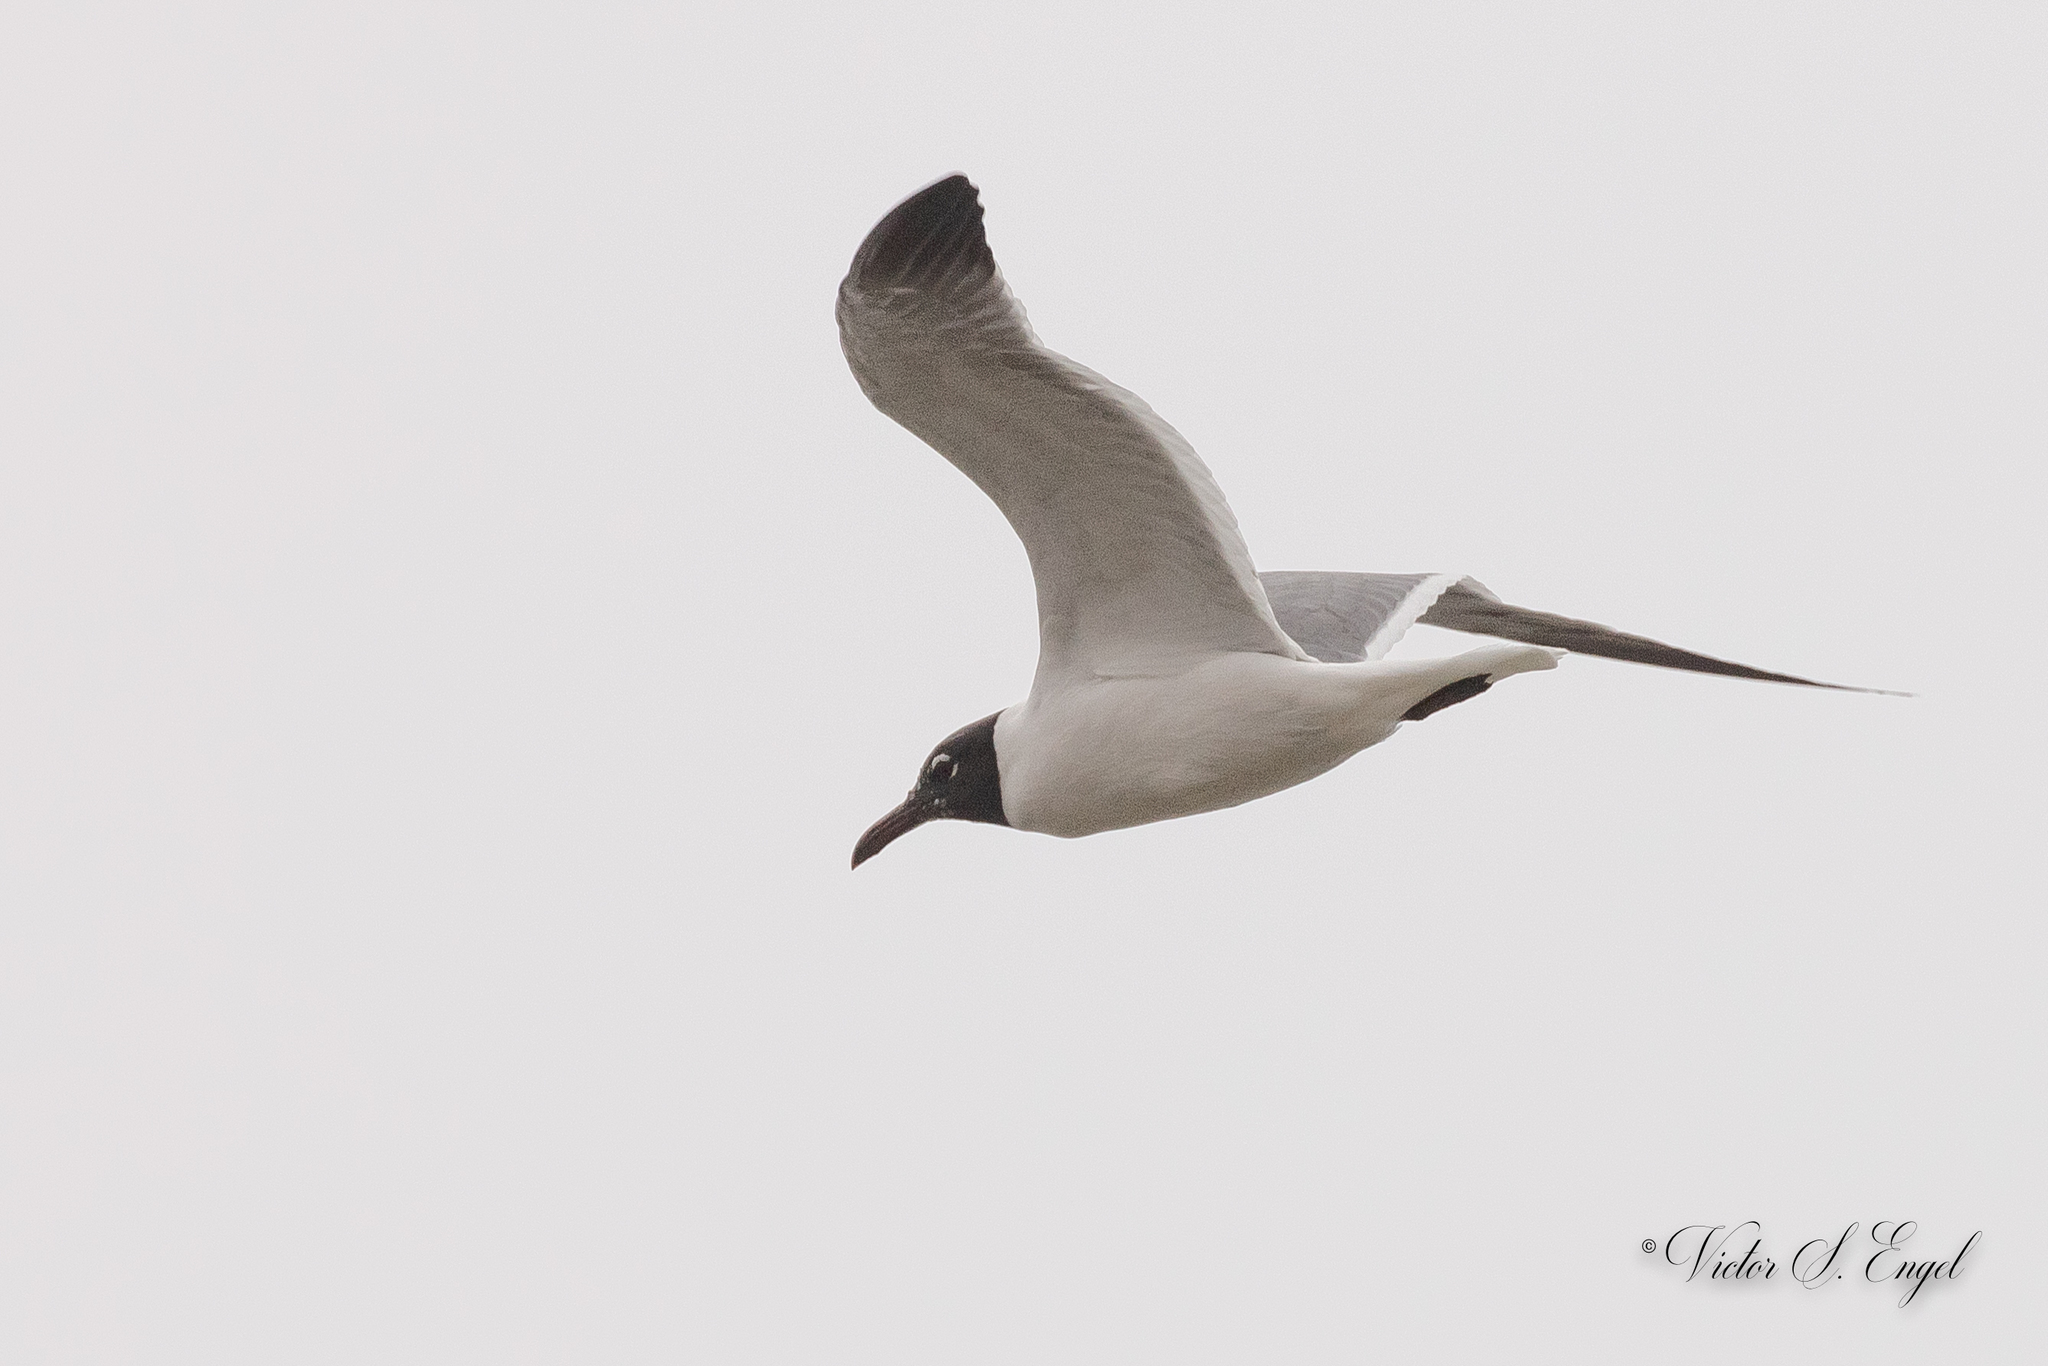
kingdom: Animalia
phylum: Chordata
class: Aves
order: Charadriiformes
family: Laridae
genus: Leucophaeus
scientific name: Leucophaeus atricilla
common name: Laughing gull
